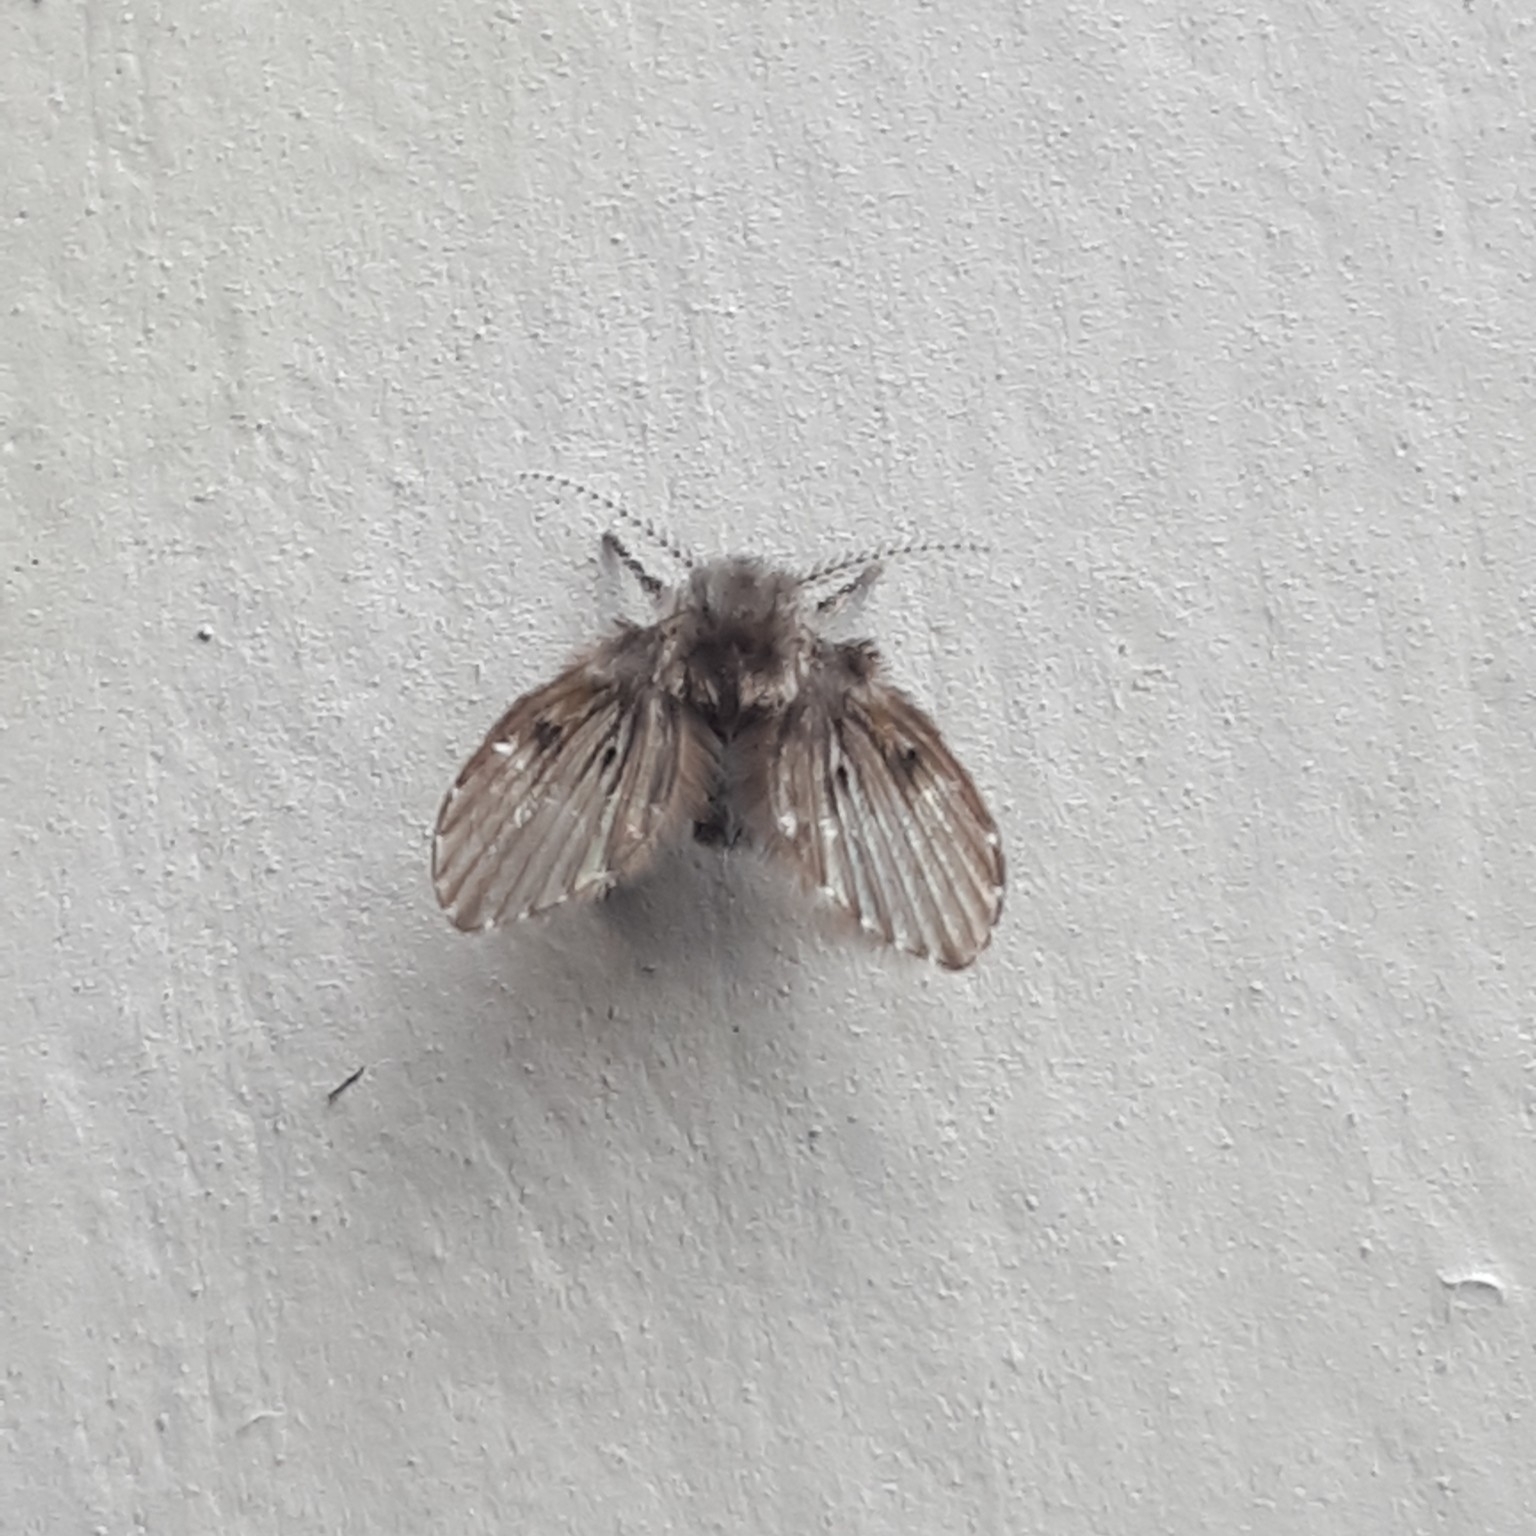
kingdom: Animalia
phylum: Arthropoda
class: Insecta
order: Diptera
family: Psychodidae
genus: Clogmia
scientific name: Clogmia albipunctatus
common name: White-spotted moth fly
